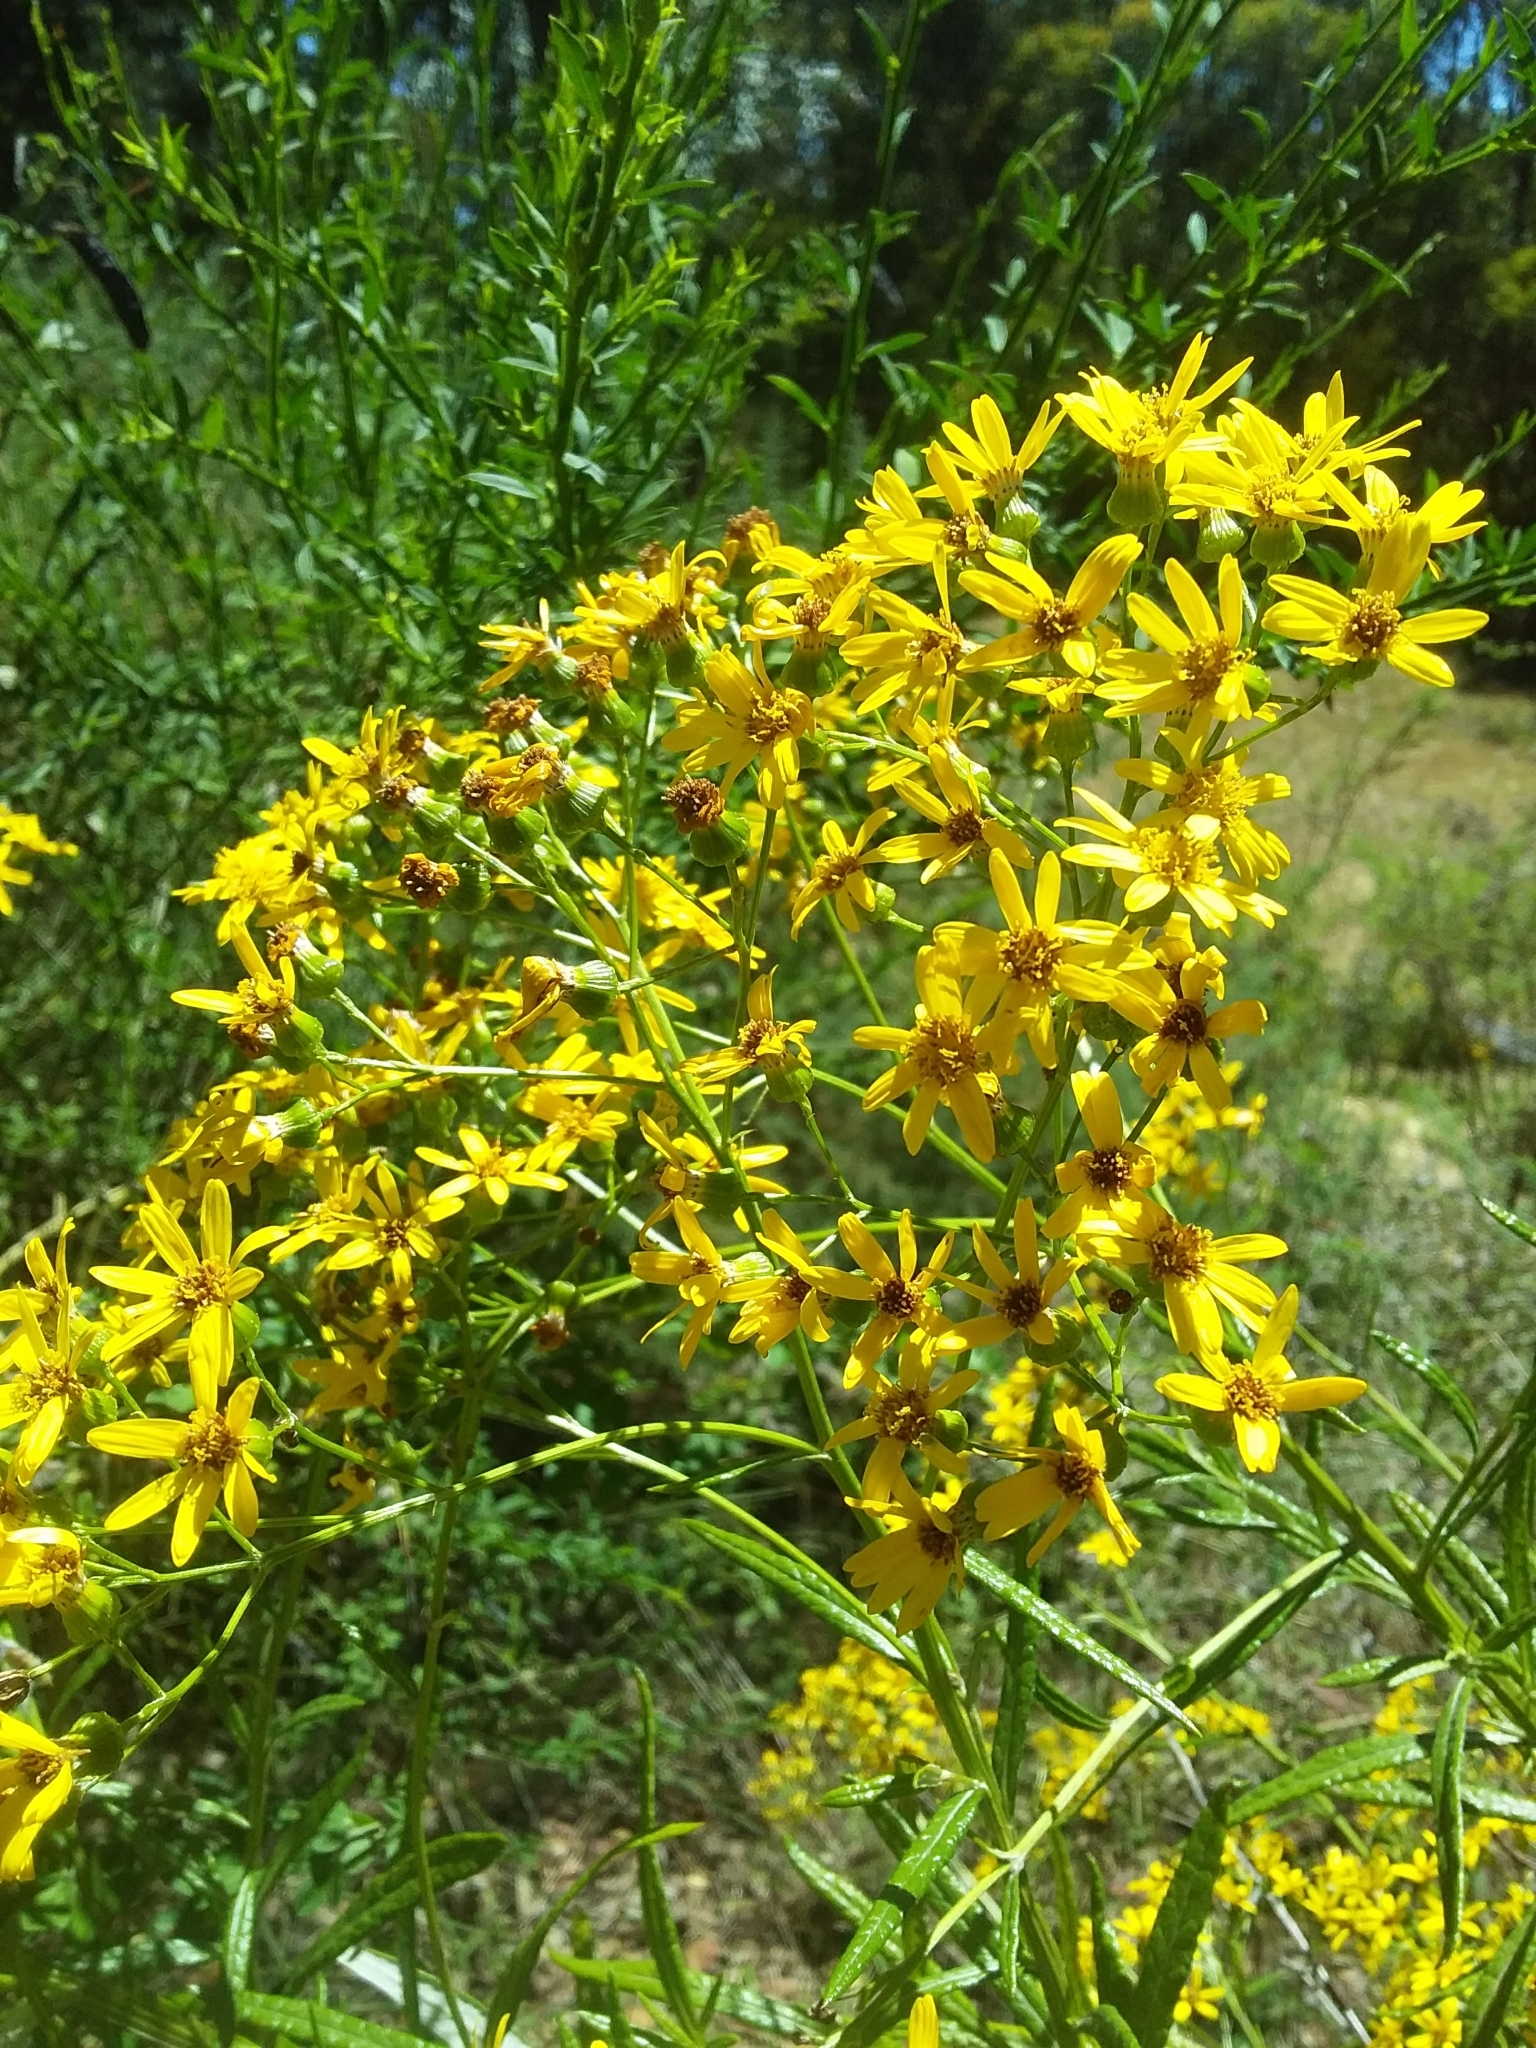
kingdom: Plantae
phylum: Tracheophyta
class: Magnoliopsida
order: Asterales
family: Asteraceae
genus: Senecio
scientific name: Senecio pterophorus
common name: Shoddy ragwort
